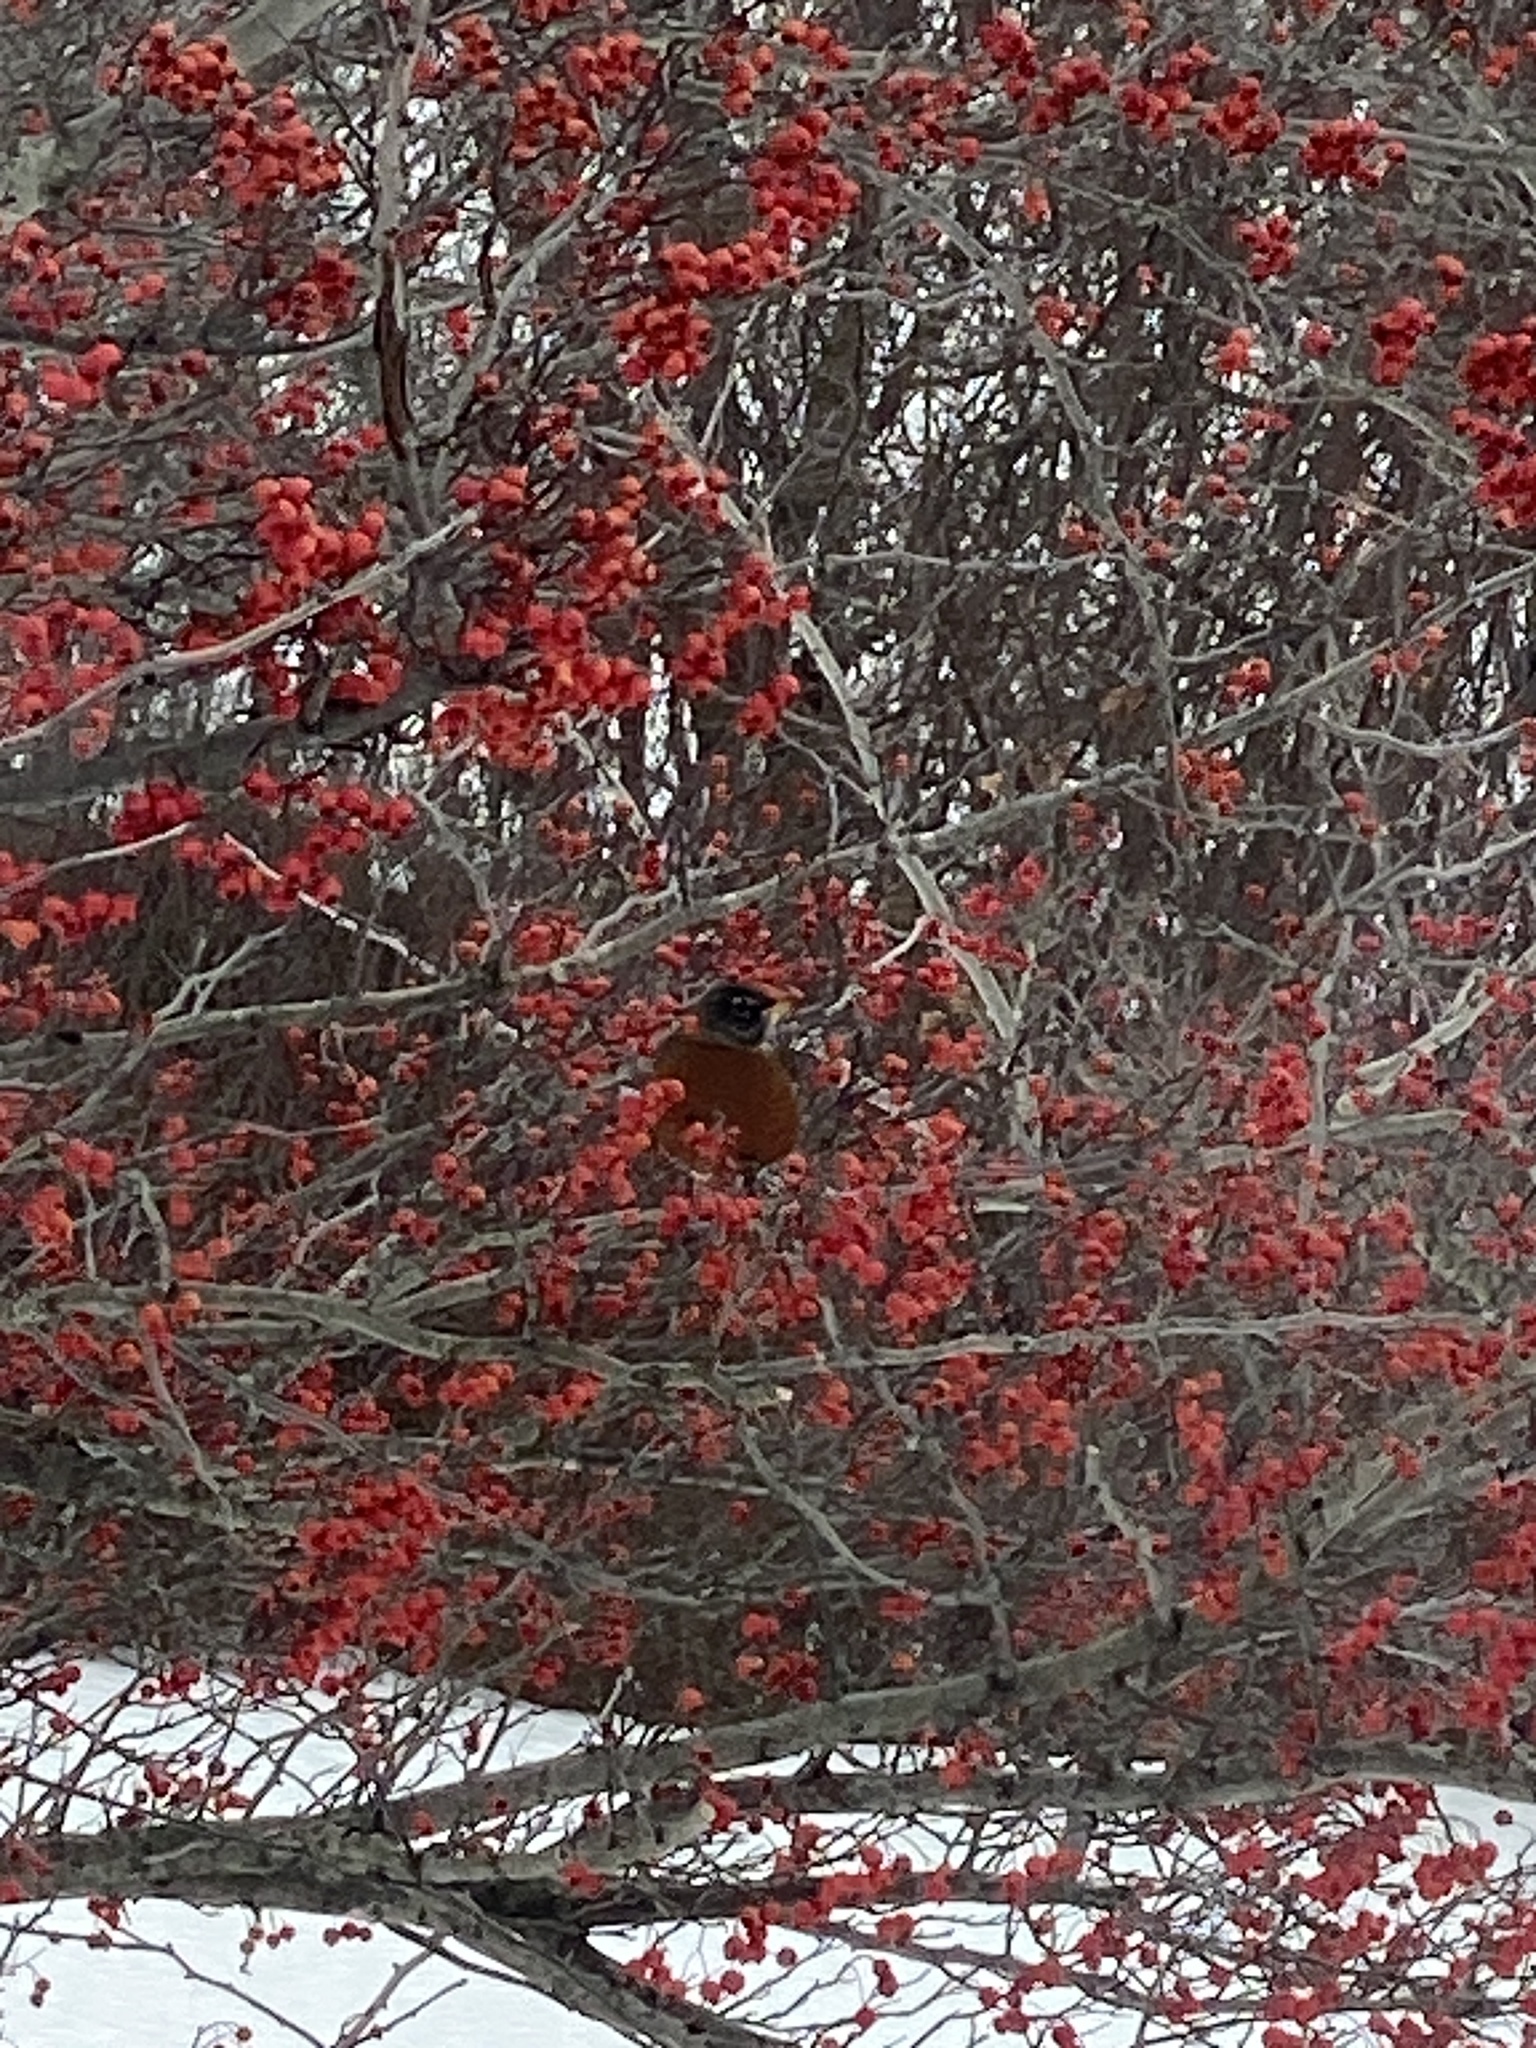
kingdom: Animalia
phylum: Chordata
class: Aves
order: Passeriformes
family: Turdidae
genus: Turdus
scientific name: Turdus migratorius
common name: American robin
